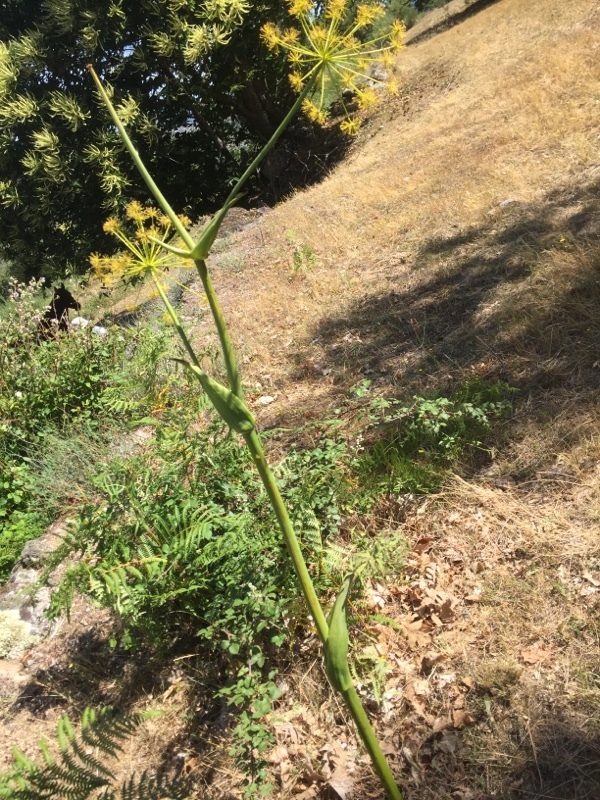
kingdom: Plantae
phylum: Tracheophyta
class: Magnoliopsida
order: Apiales
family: Apiaceae
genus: Thapsia
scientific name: Thapsia villosa
